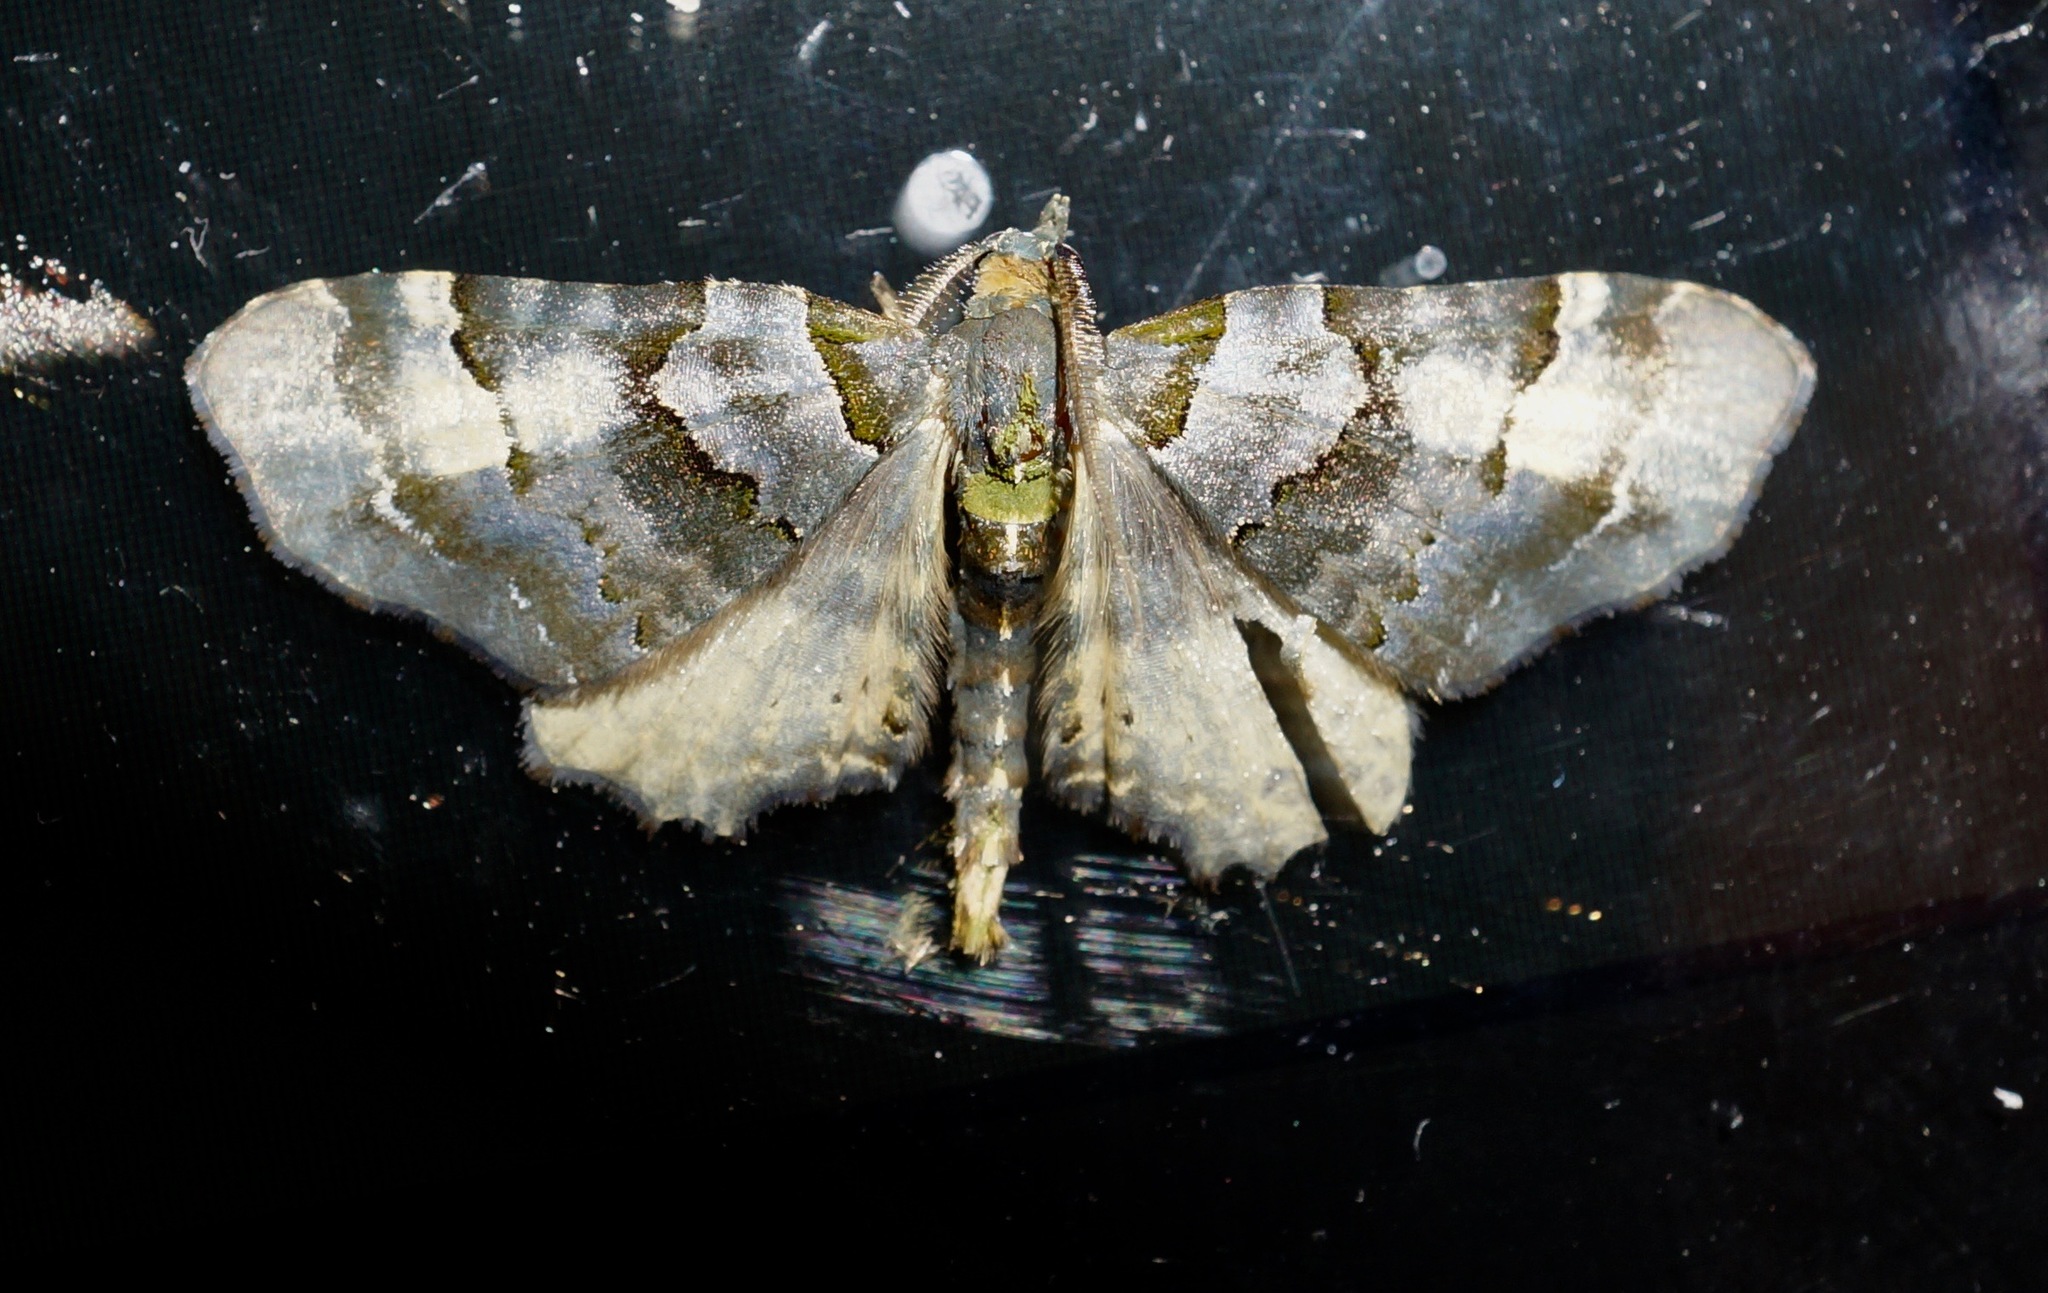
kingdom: Animalia
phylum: Arthropoda
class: Insecta
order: Lepidoptera
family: Geometridae
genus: Elvia
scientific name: Elvia glaucata
